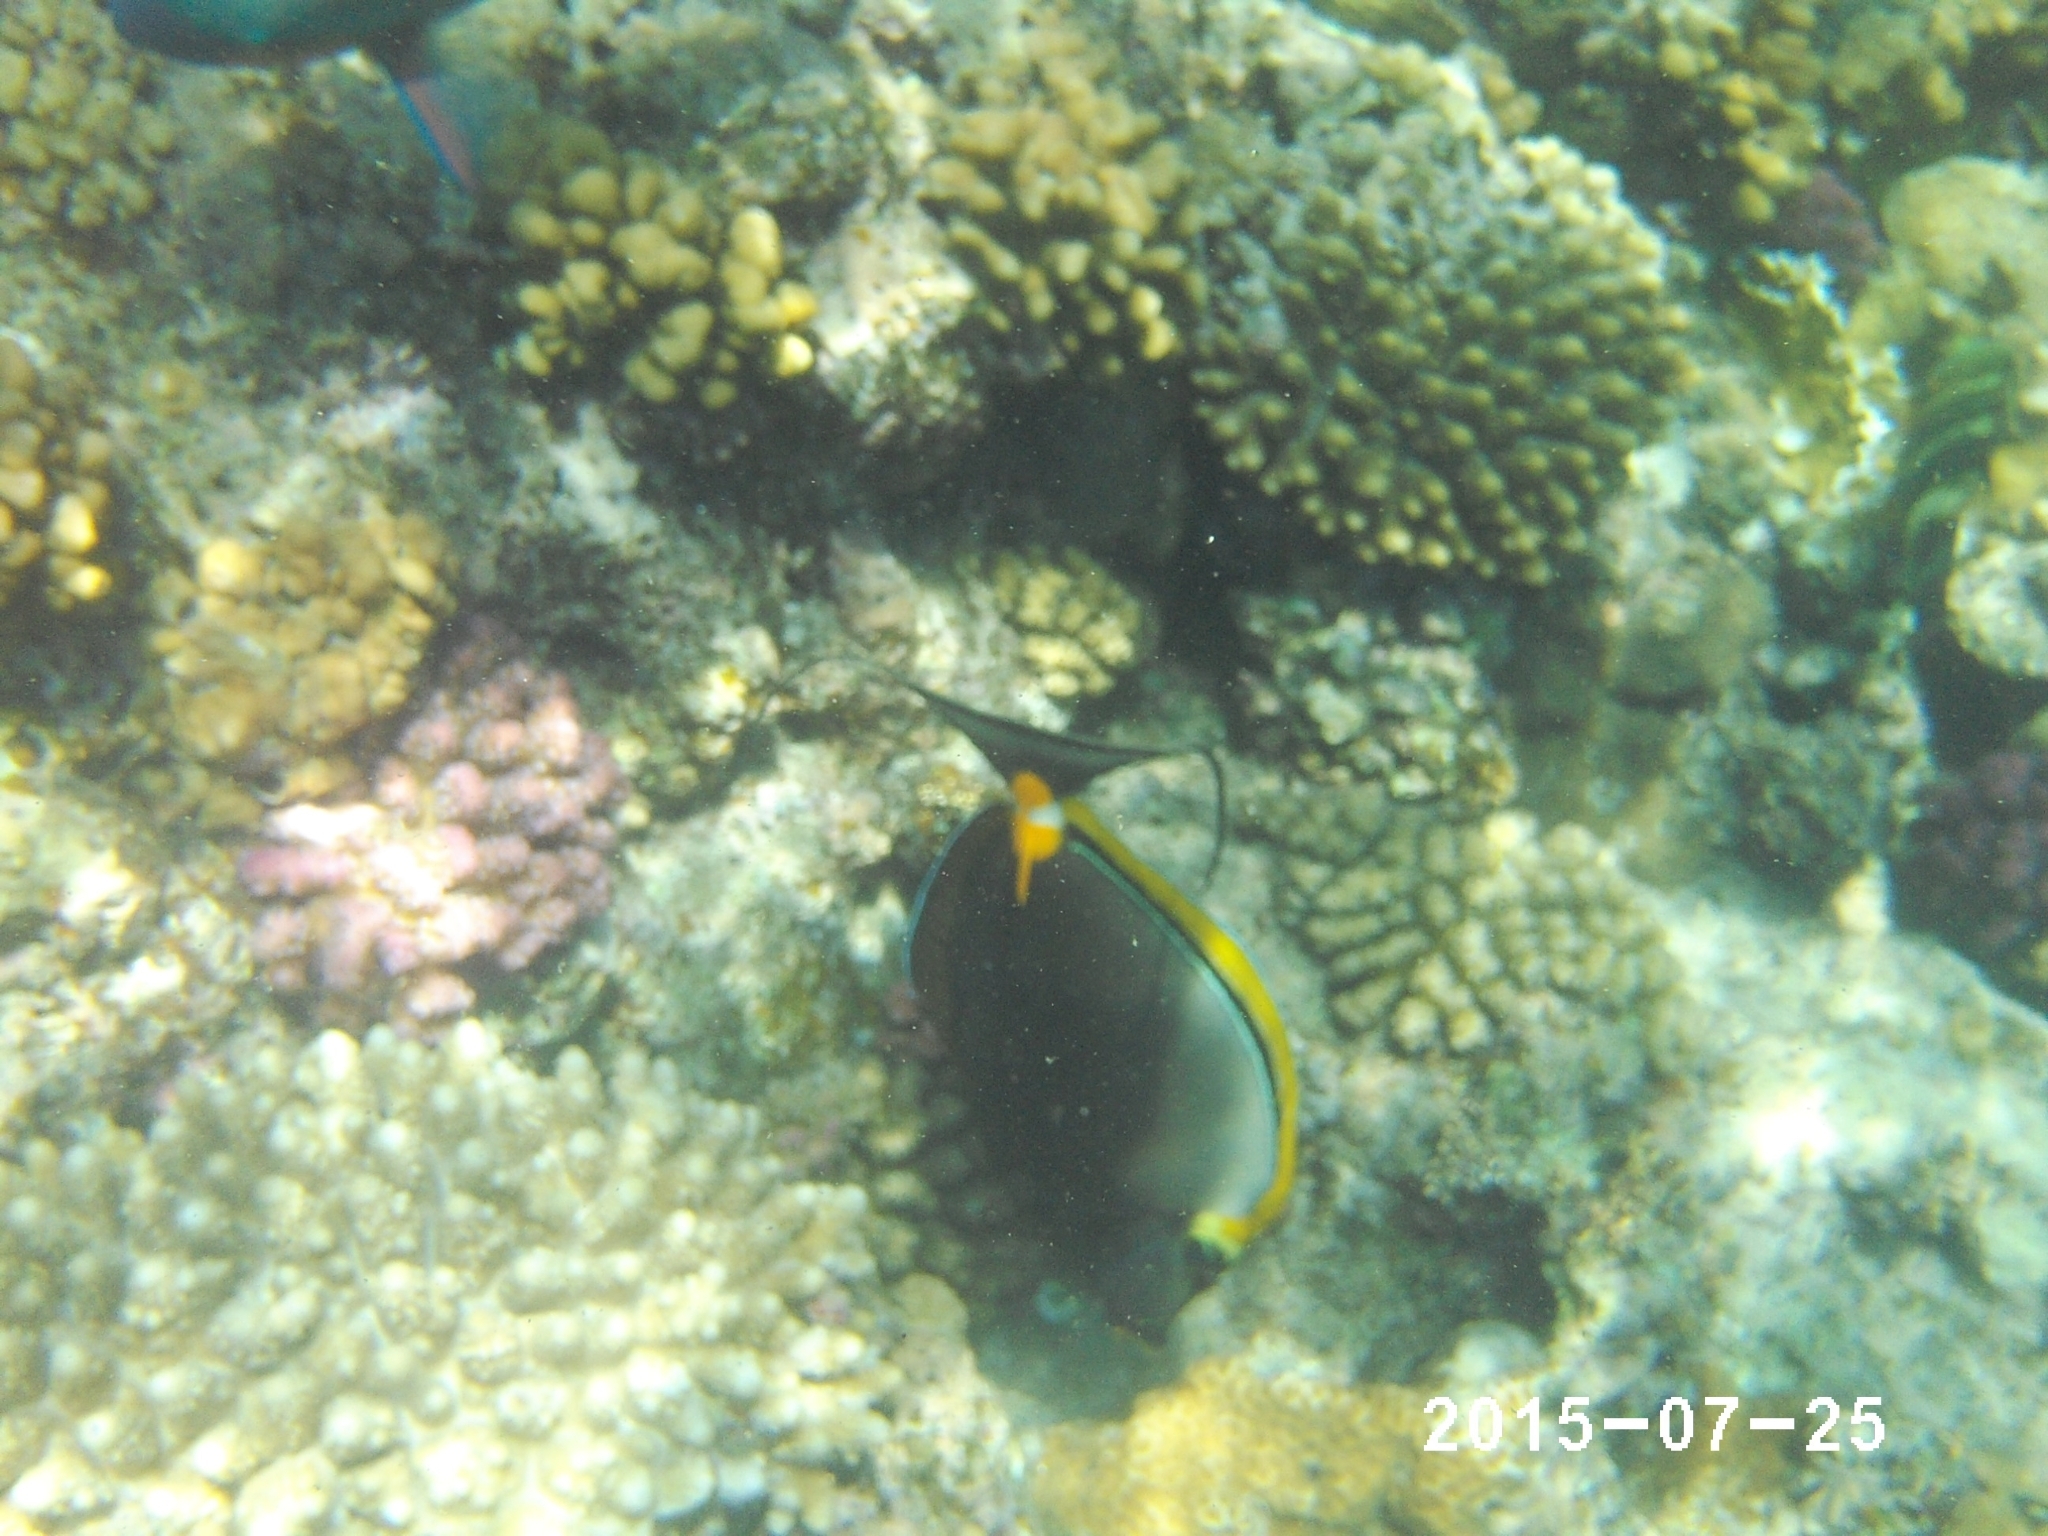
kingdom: Animalia
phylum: Chordata
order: Perciformes
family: Acanthuridae
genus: Naso
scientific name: Naso elegans
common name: Orangespine unicornfish
